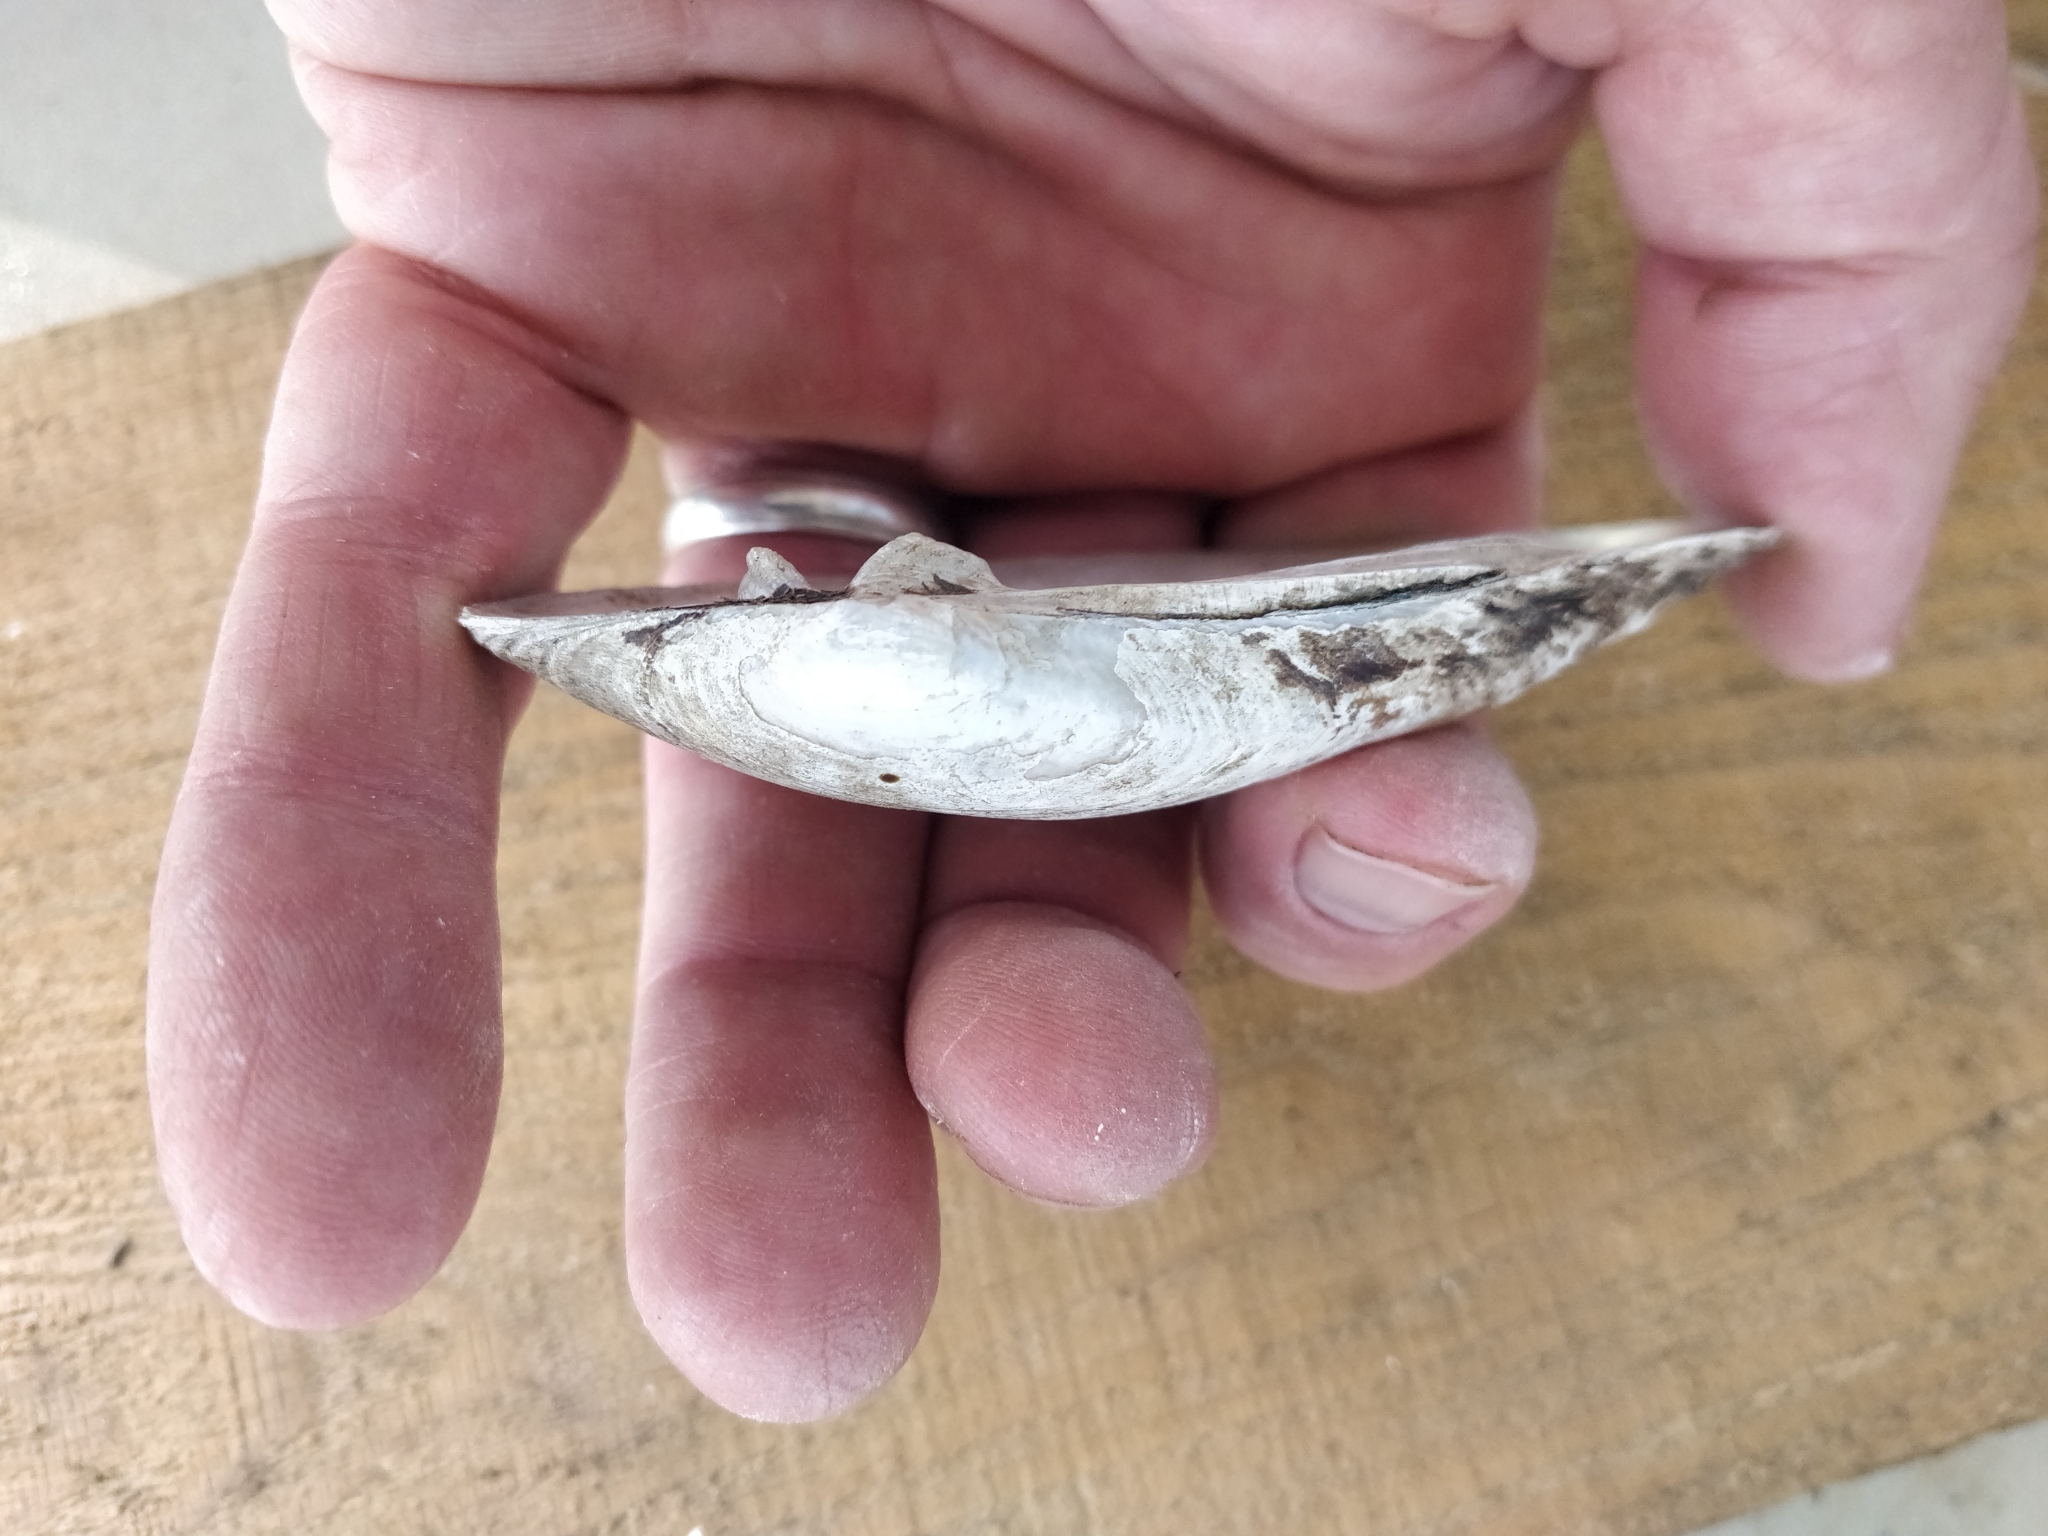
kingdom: Animalia
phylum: Mollusca
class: Bivalvia
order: Unionida
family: Unionidae
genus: Lampsilis
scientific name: Lampsilis siliquoidea
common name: Fatmucket
